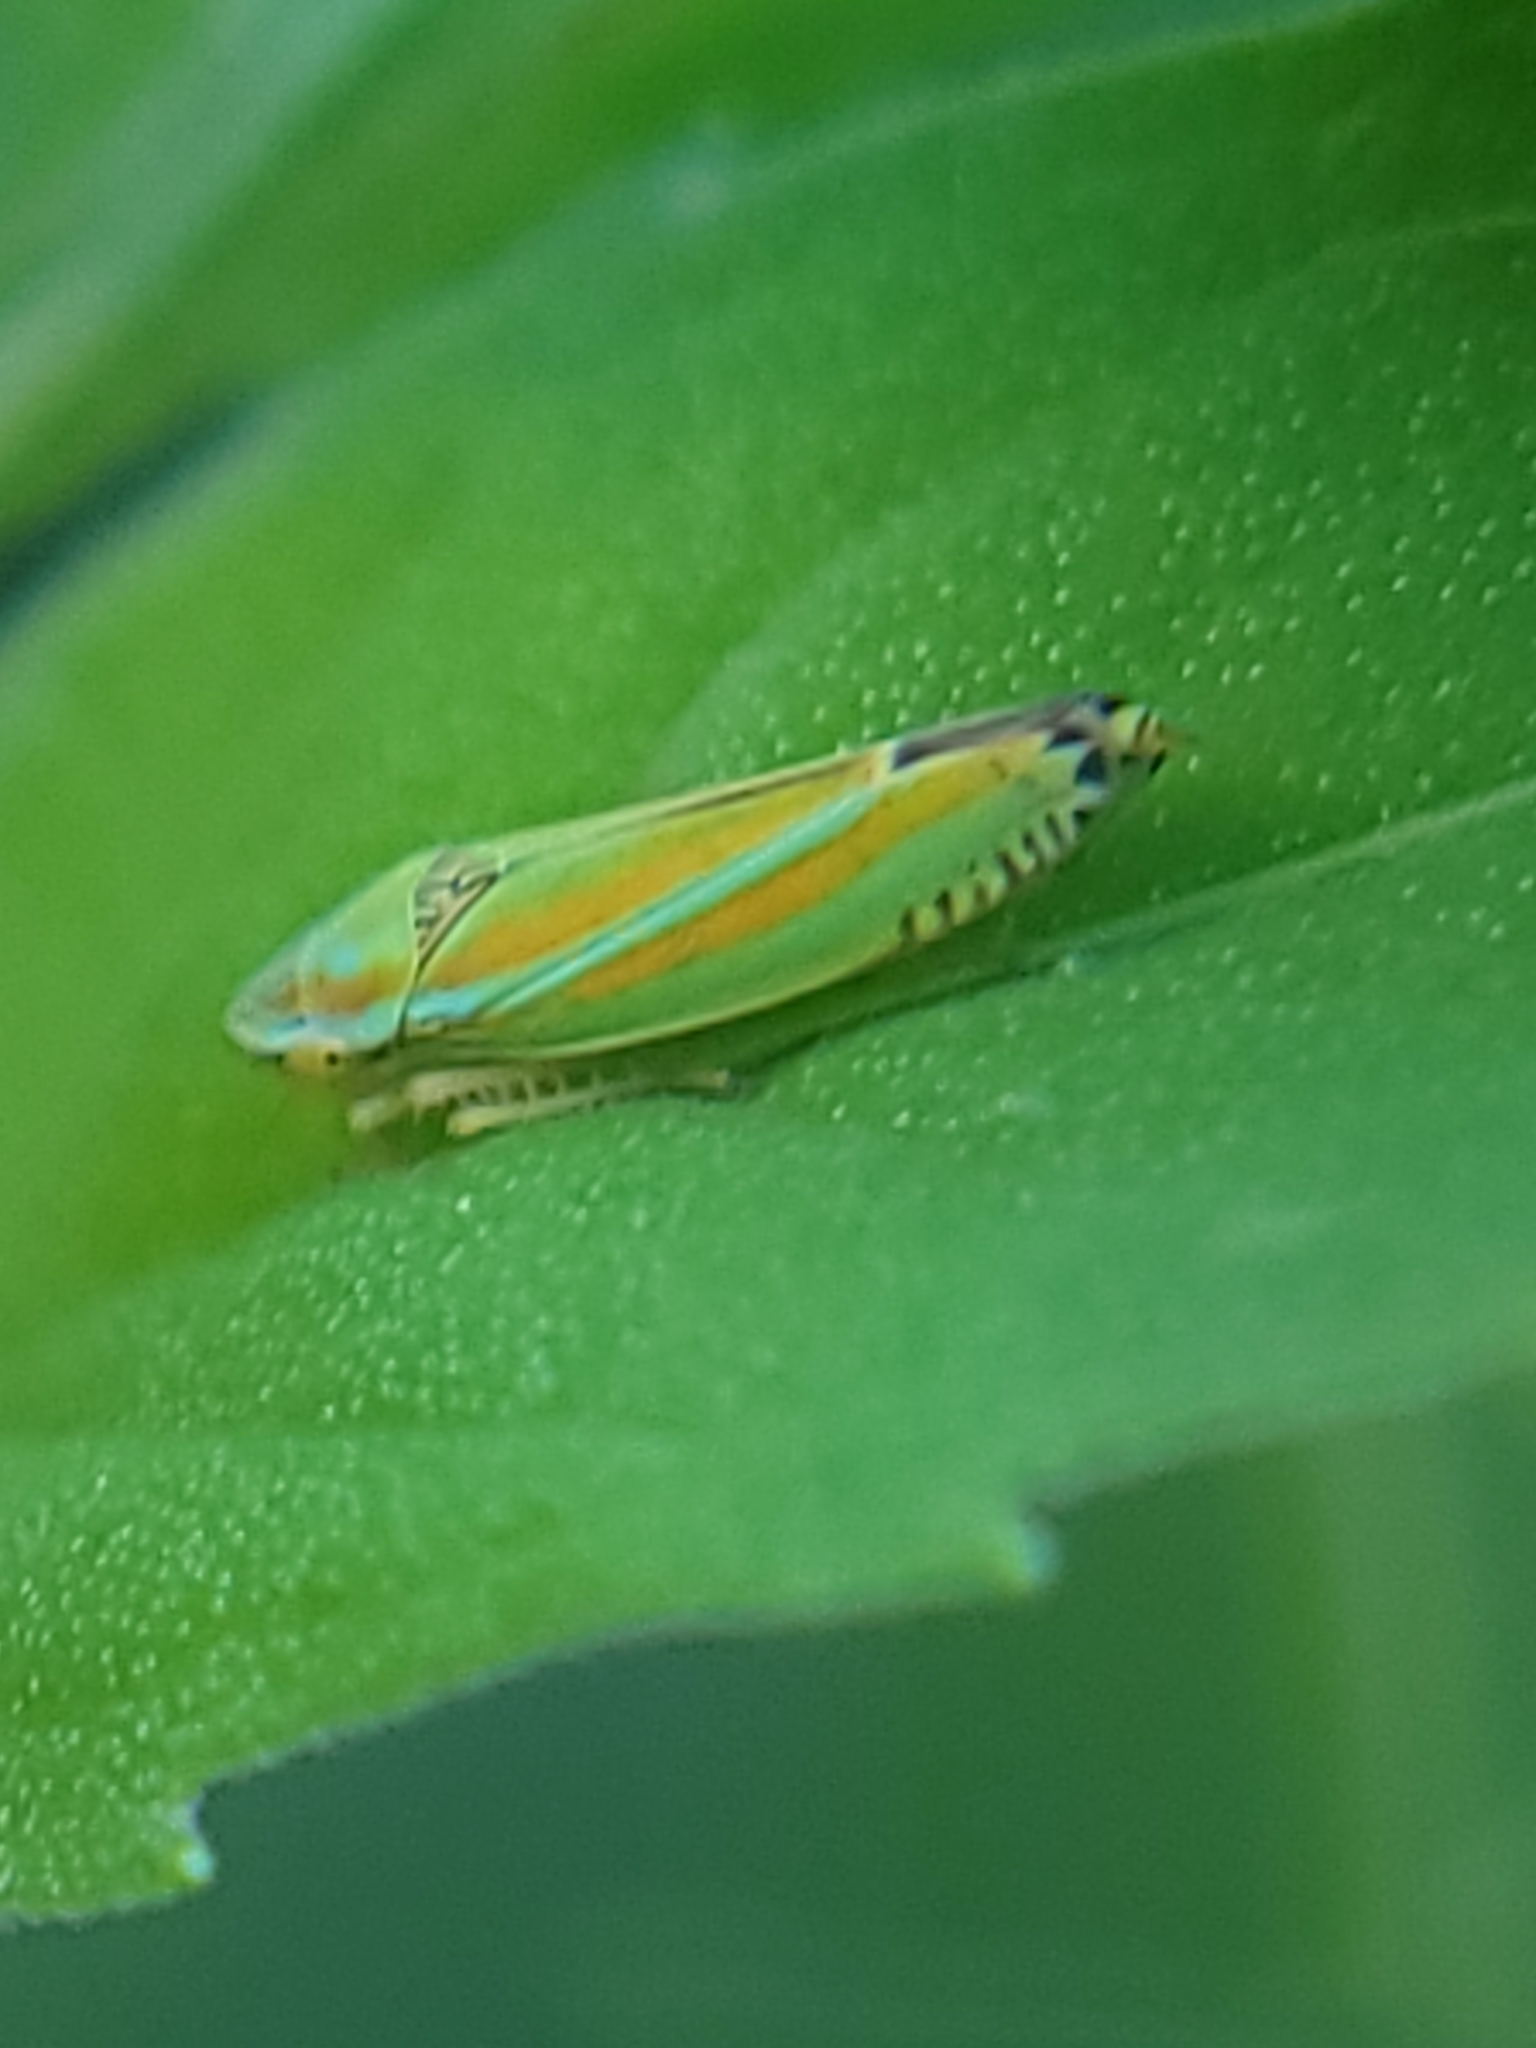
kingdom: Animalia
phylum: Arthropoda
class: Insecta
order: Hemiptera
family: Cicadellidae
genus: Graphocephala
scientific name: Graphocephala versuta
